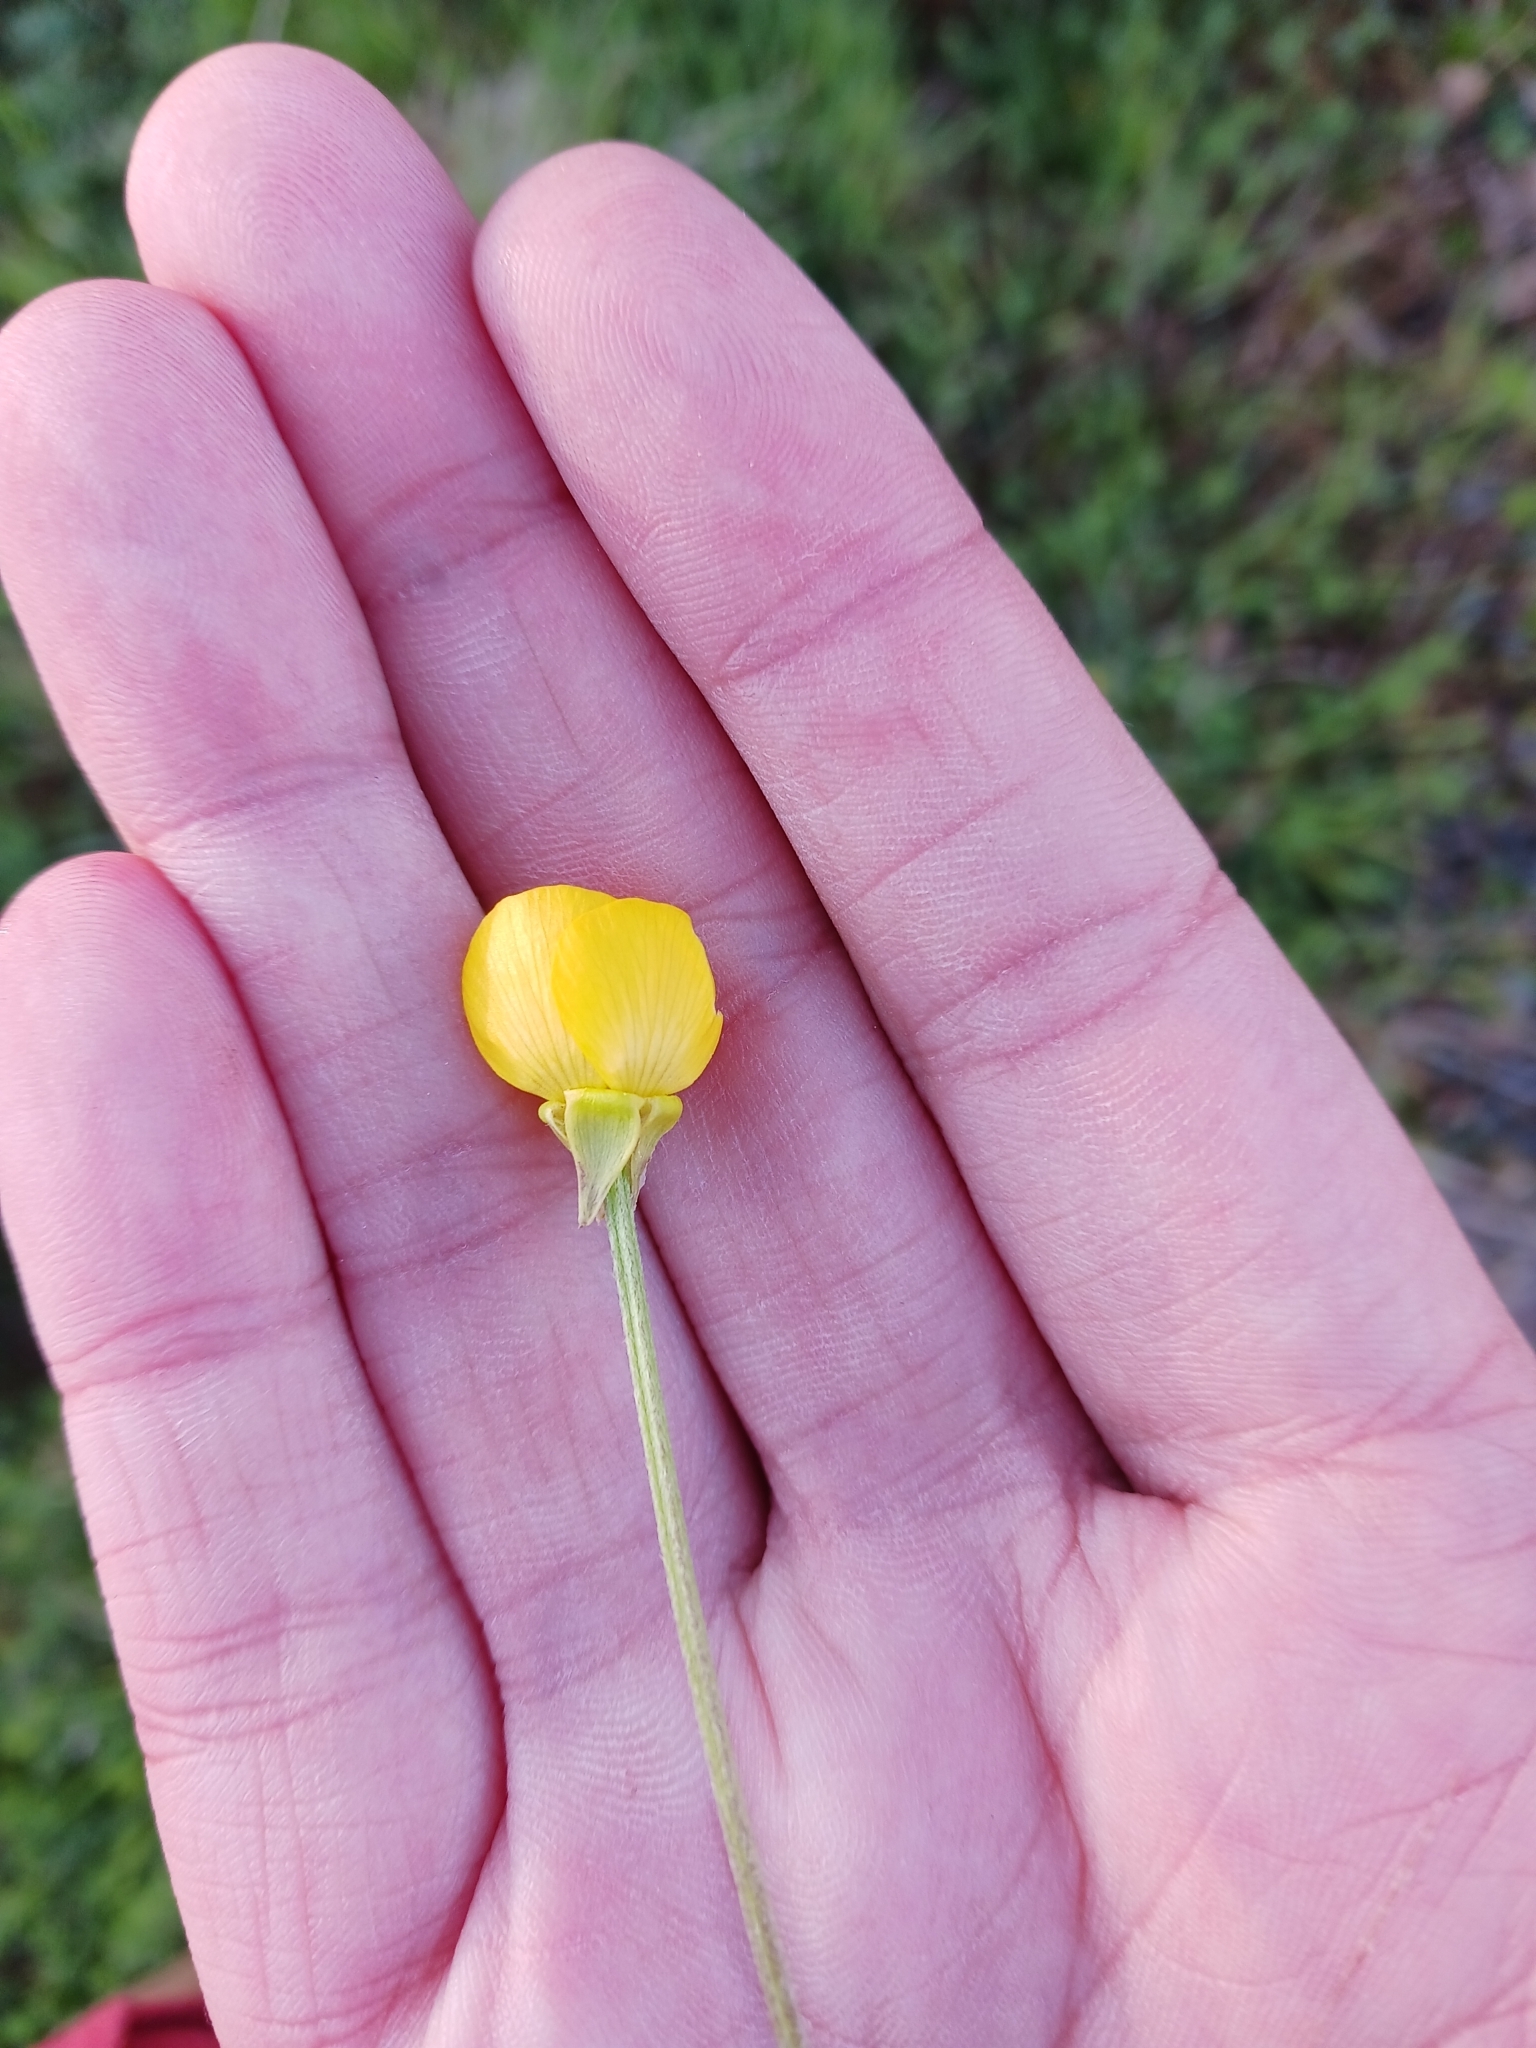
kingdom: Plantae
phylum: Tracheophyta
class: Magnoliopsida
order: Ranunculales
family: Ranunculaceae
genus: Ranunculus
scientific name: Ranunculus bulbosus
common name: Bulbous buttercup
